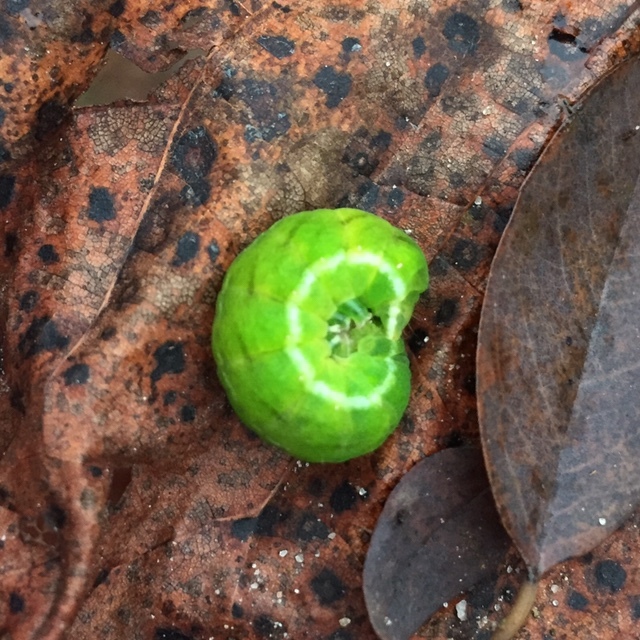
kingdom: Animalia
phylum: Arthropoda
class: Insecta
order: Lepidoptera
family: Noctuidae
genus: Phlogophora
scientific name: Phlogophora meticulosa
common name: Angle shades
